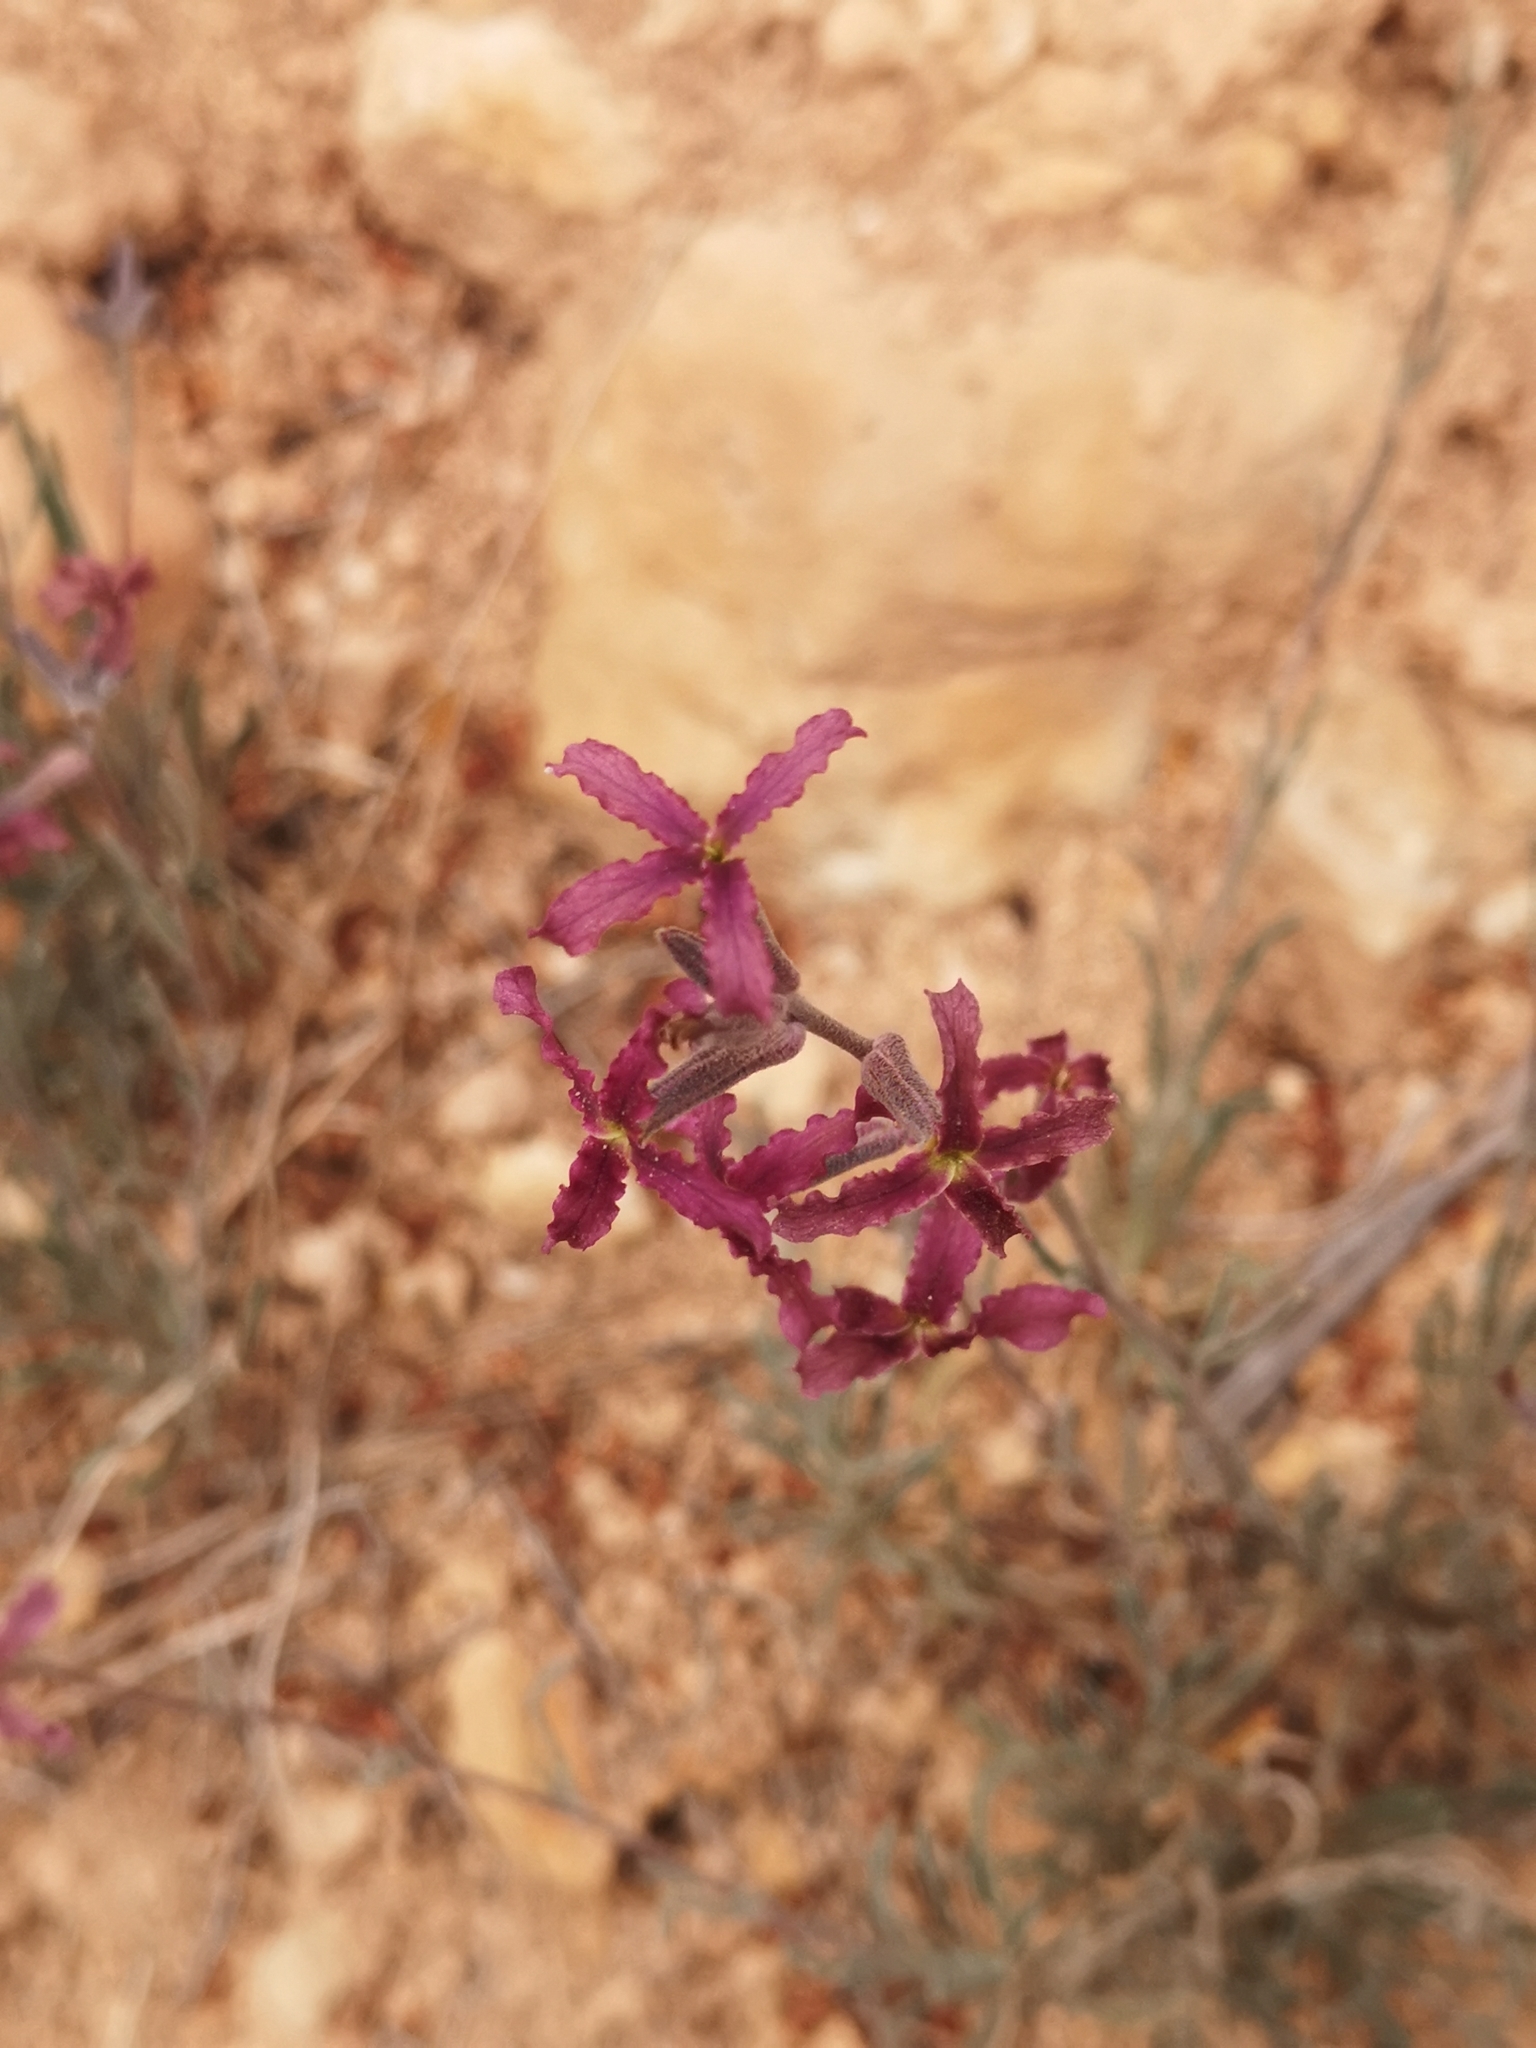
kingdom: Plantae
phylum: Tracheophyta
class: Magnoliopsida
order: Brassicales
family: Brassicaceae
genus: Matthiola
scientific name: Matthiola fruticulosa
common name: Sad stock
